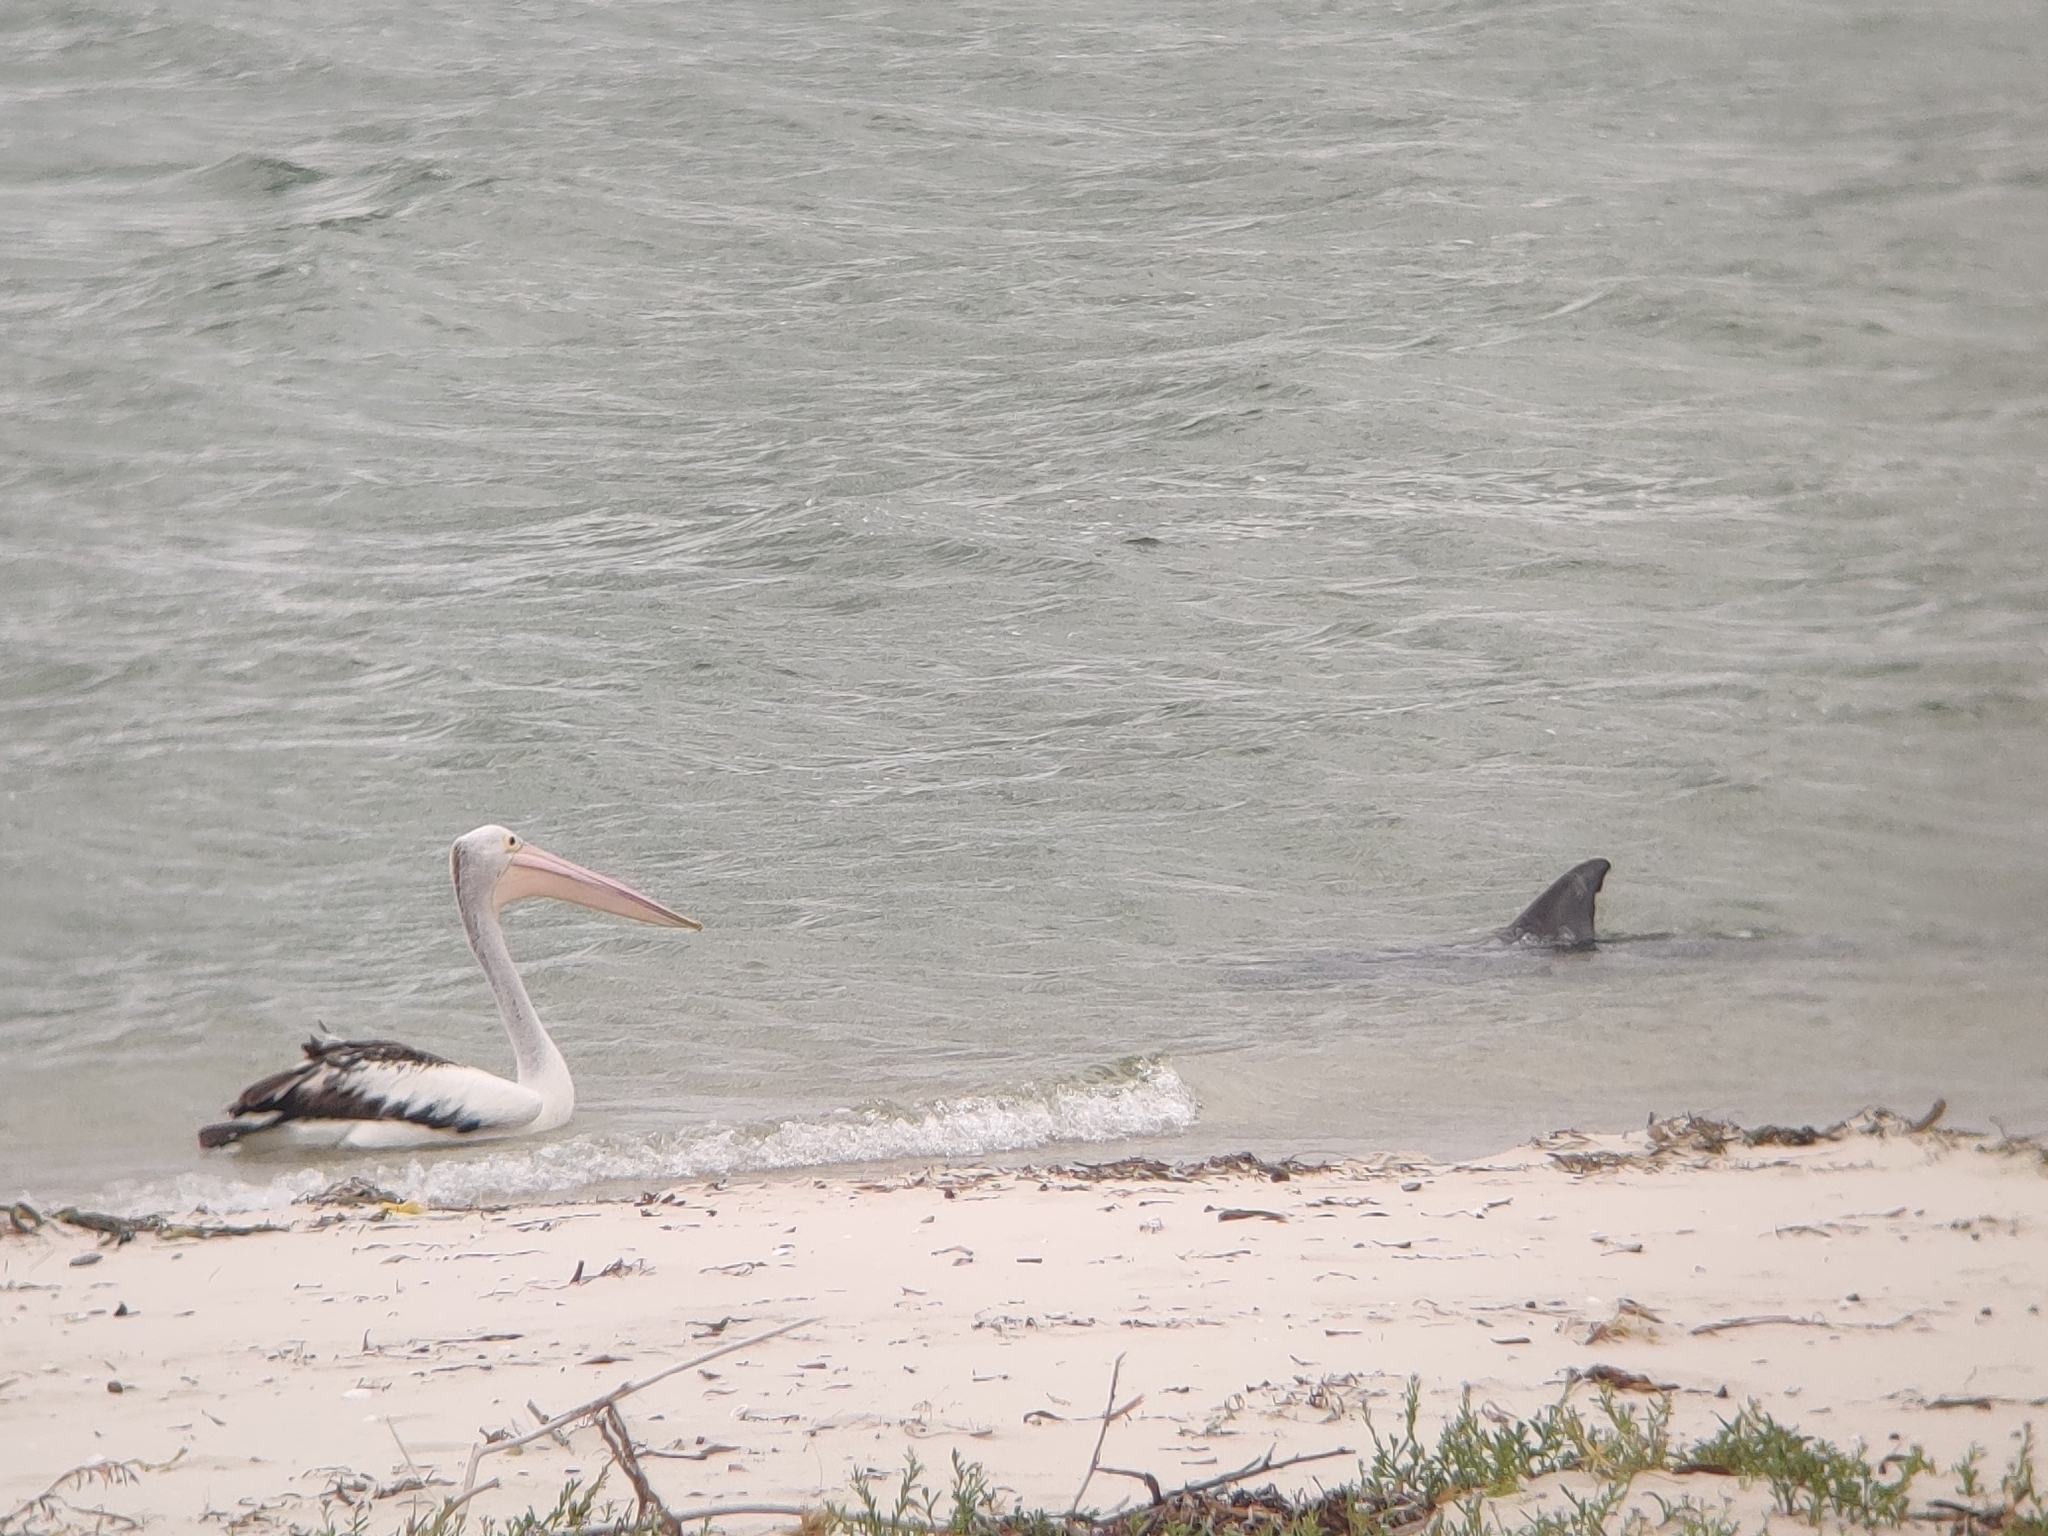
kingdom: Animalia
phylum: Chordata
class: Aves
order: Pelecaniformes
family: Pelecanidae
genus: Pelecanus
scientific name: Pelecanus conspicillatus
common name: Australian pelican
